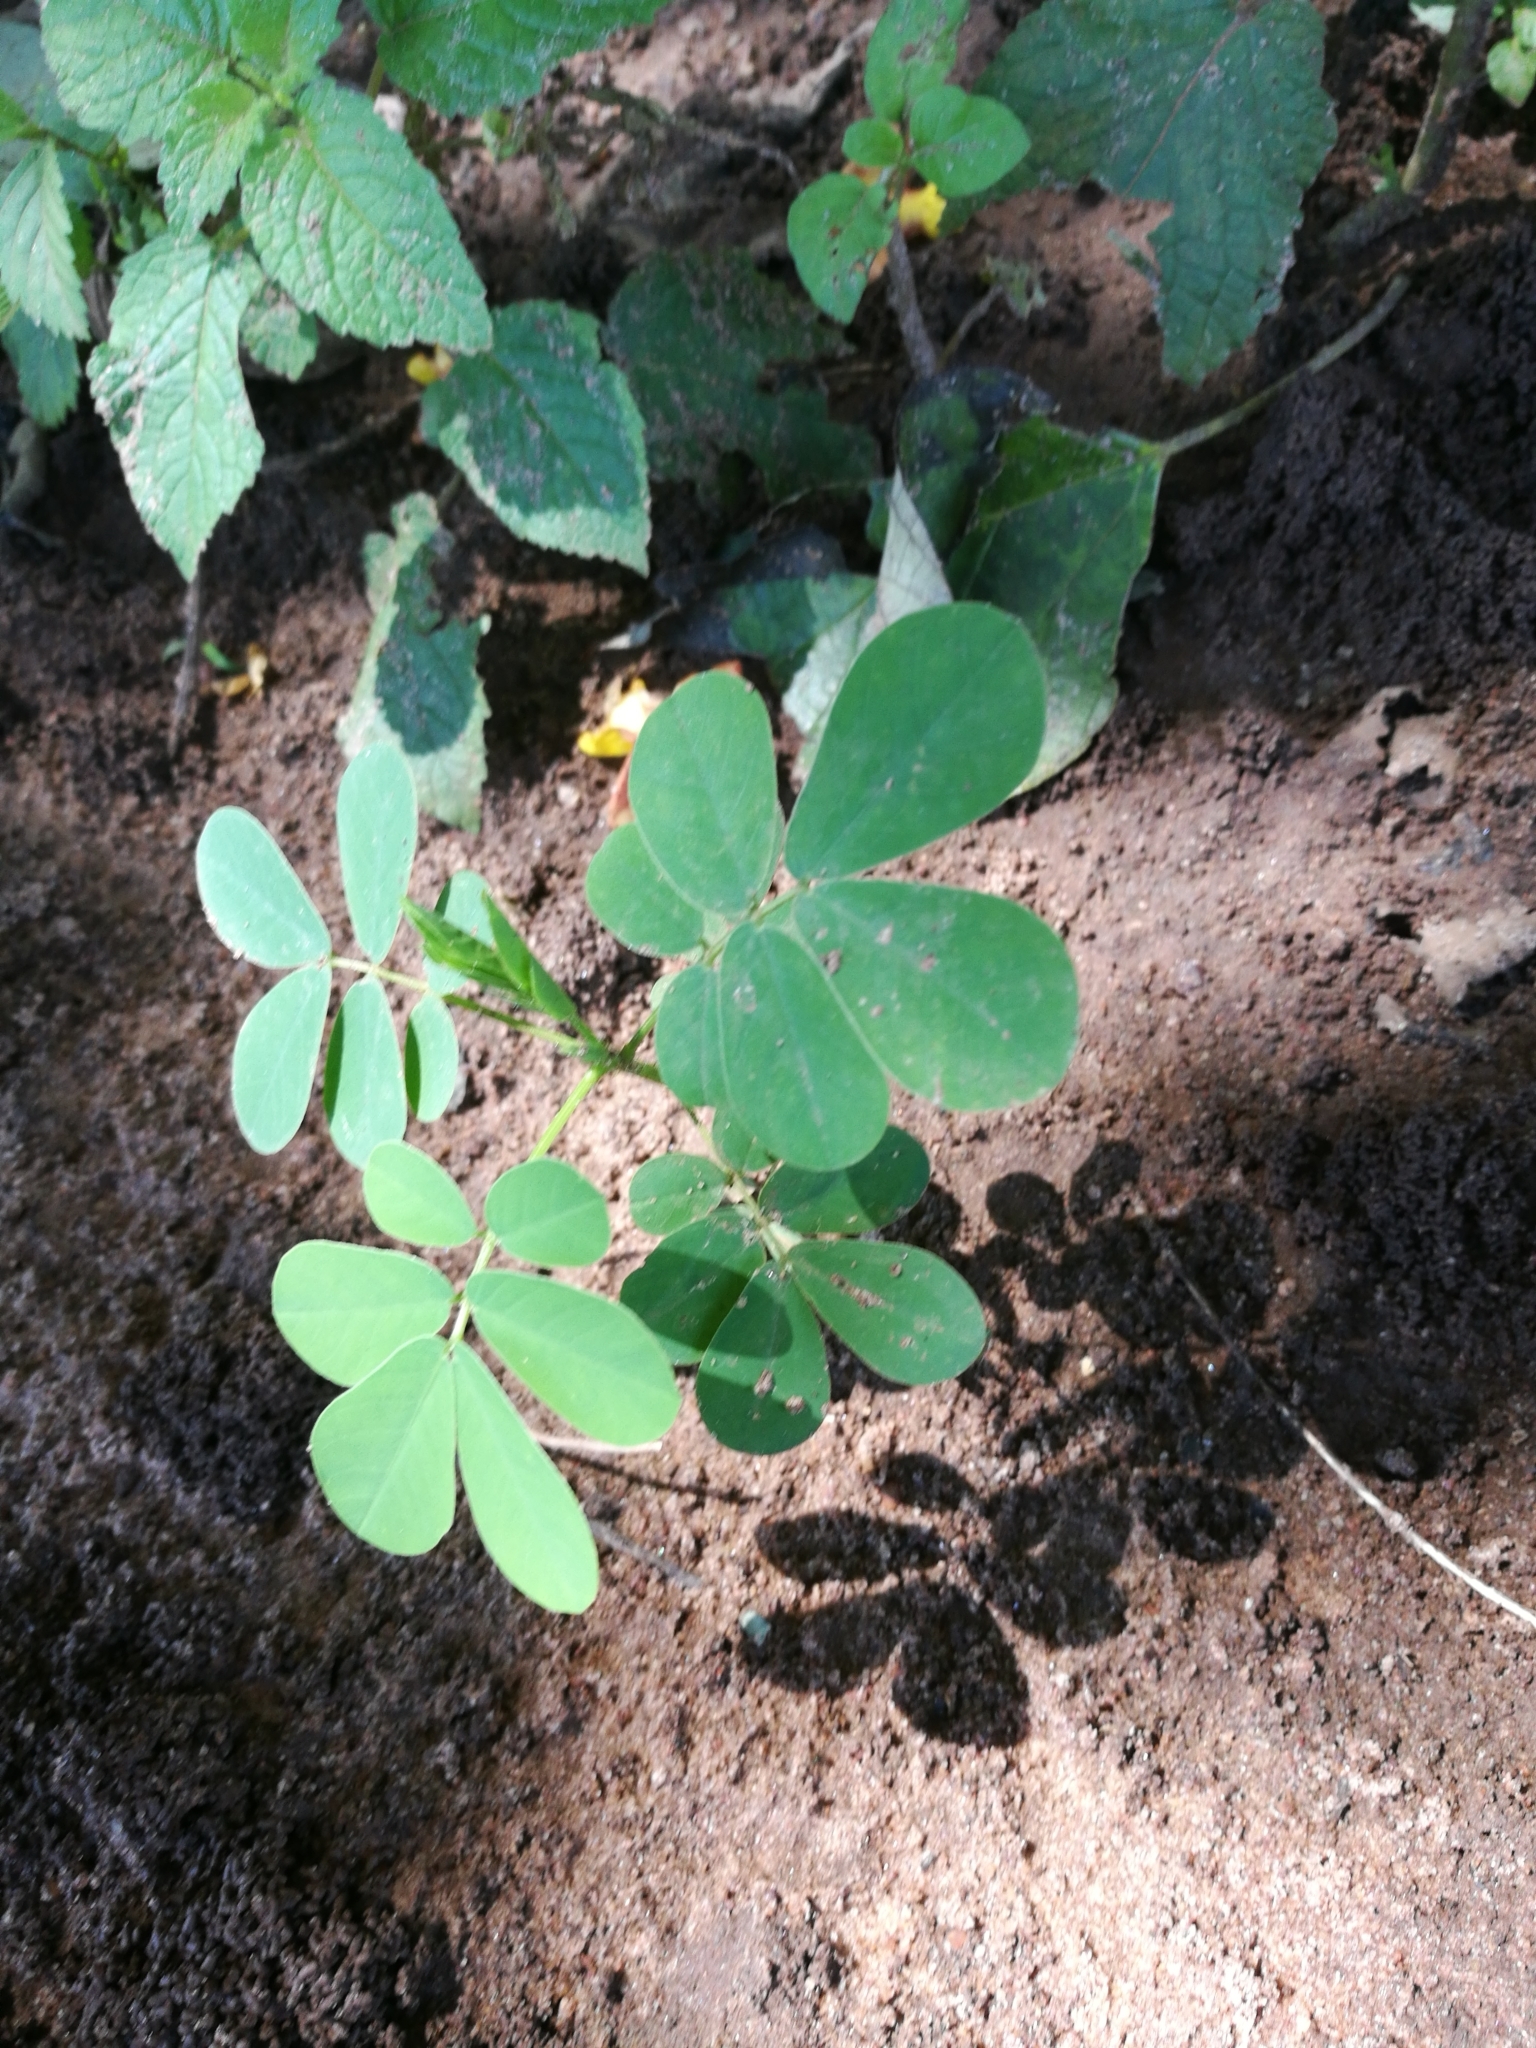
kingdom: Plantae
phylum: Tracheophyta
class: Magnoliopsida
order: Fabales
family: Fabaceae
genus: Senna
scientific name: Senna obtusifolia
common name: Java-bean
